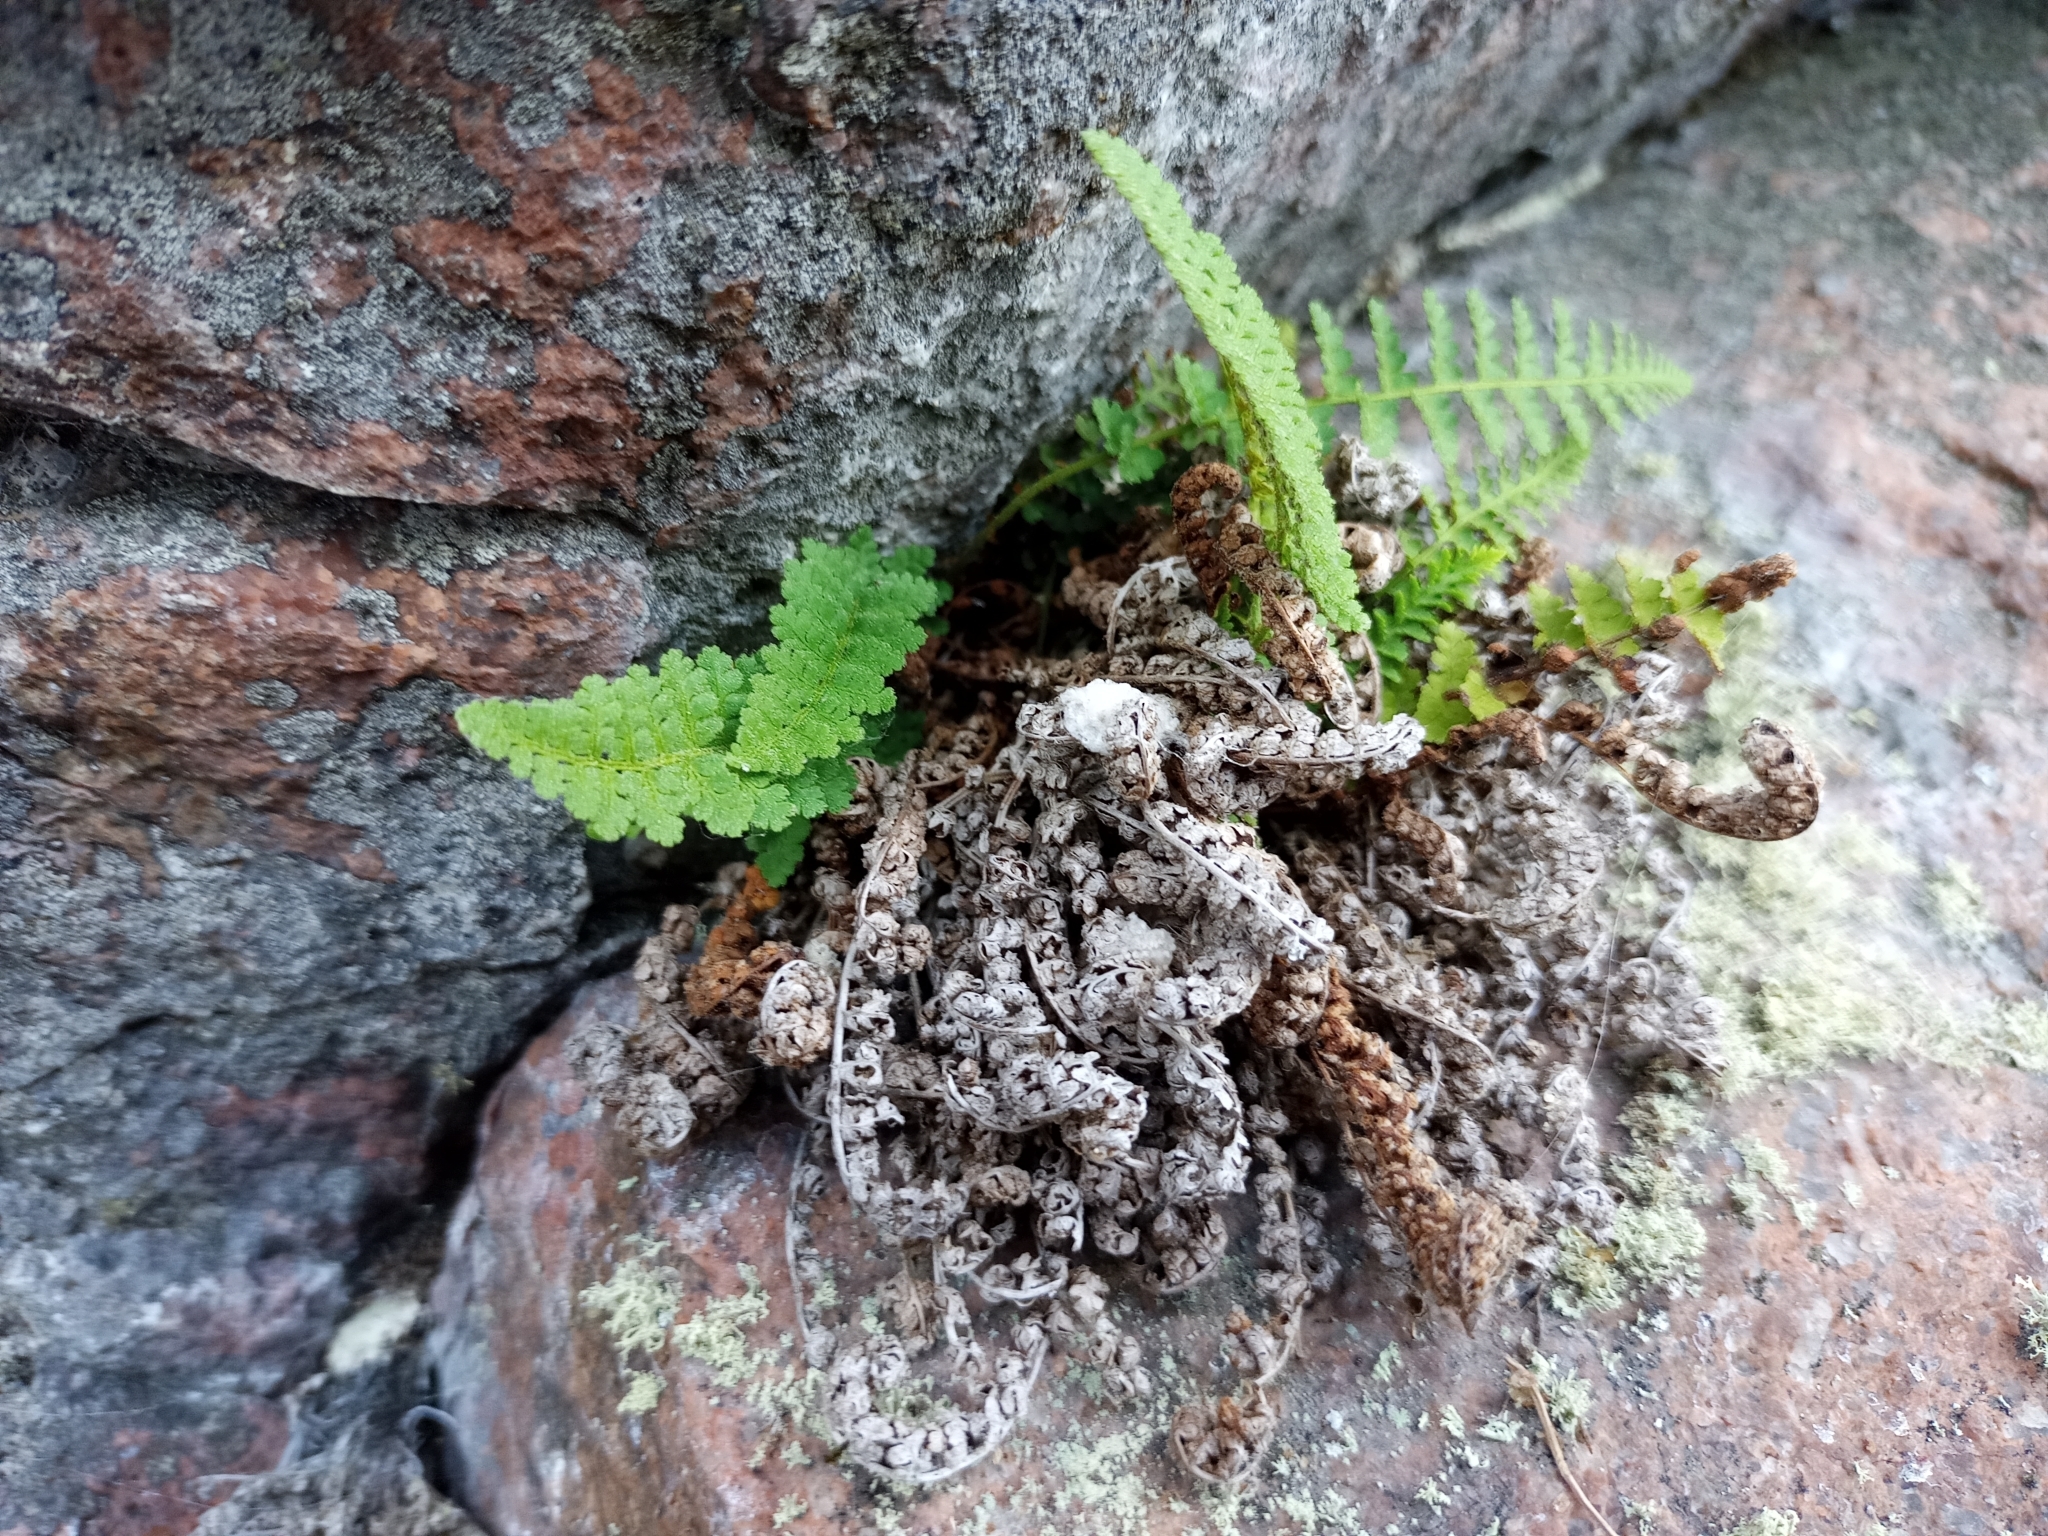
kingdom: Plantae
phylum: Tracheophyta
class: Polypodiopsida
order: Polypodiales
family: Dryopteridaceae
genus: Dryopteris
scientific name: Dryopteris fragrans
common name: Fragrant wood fern
